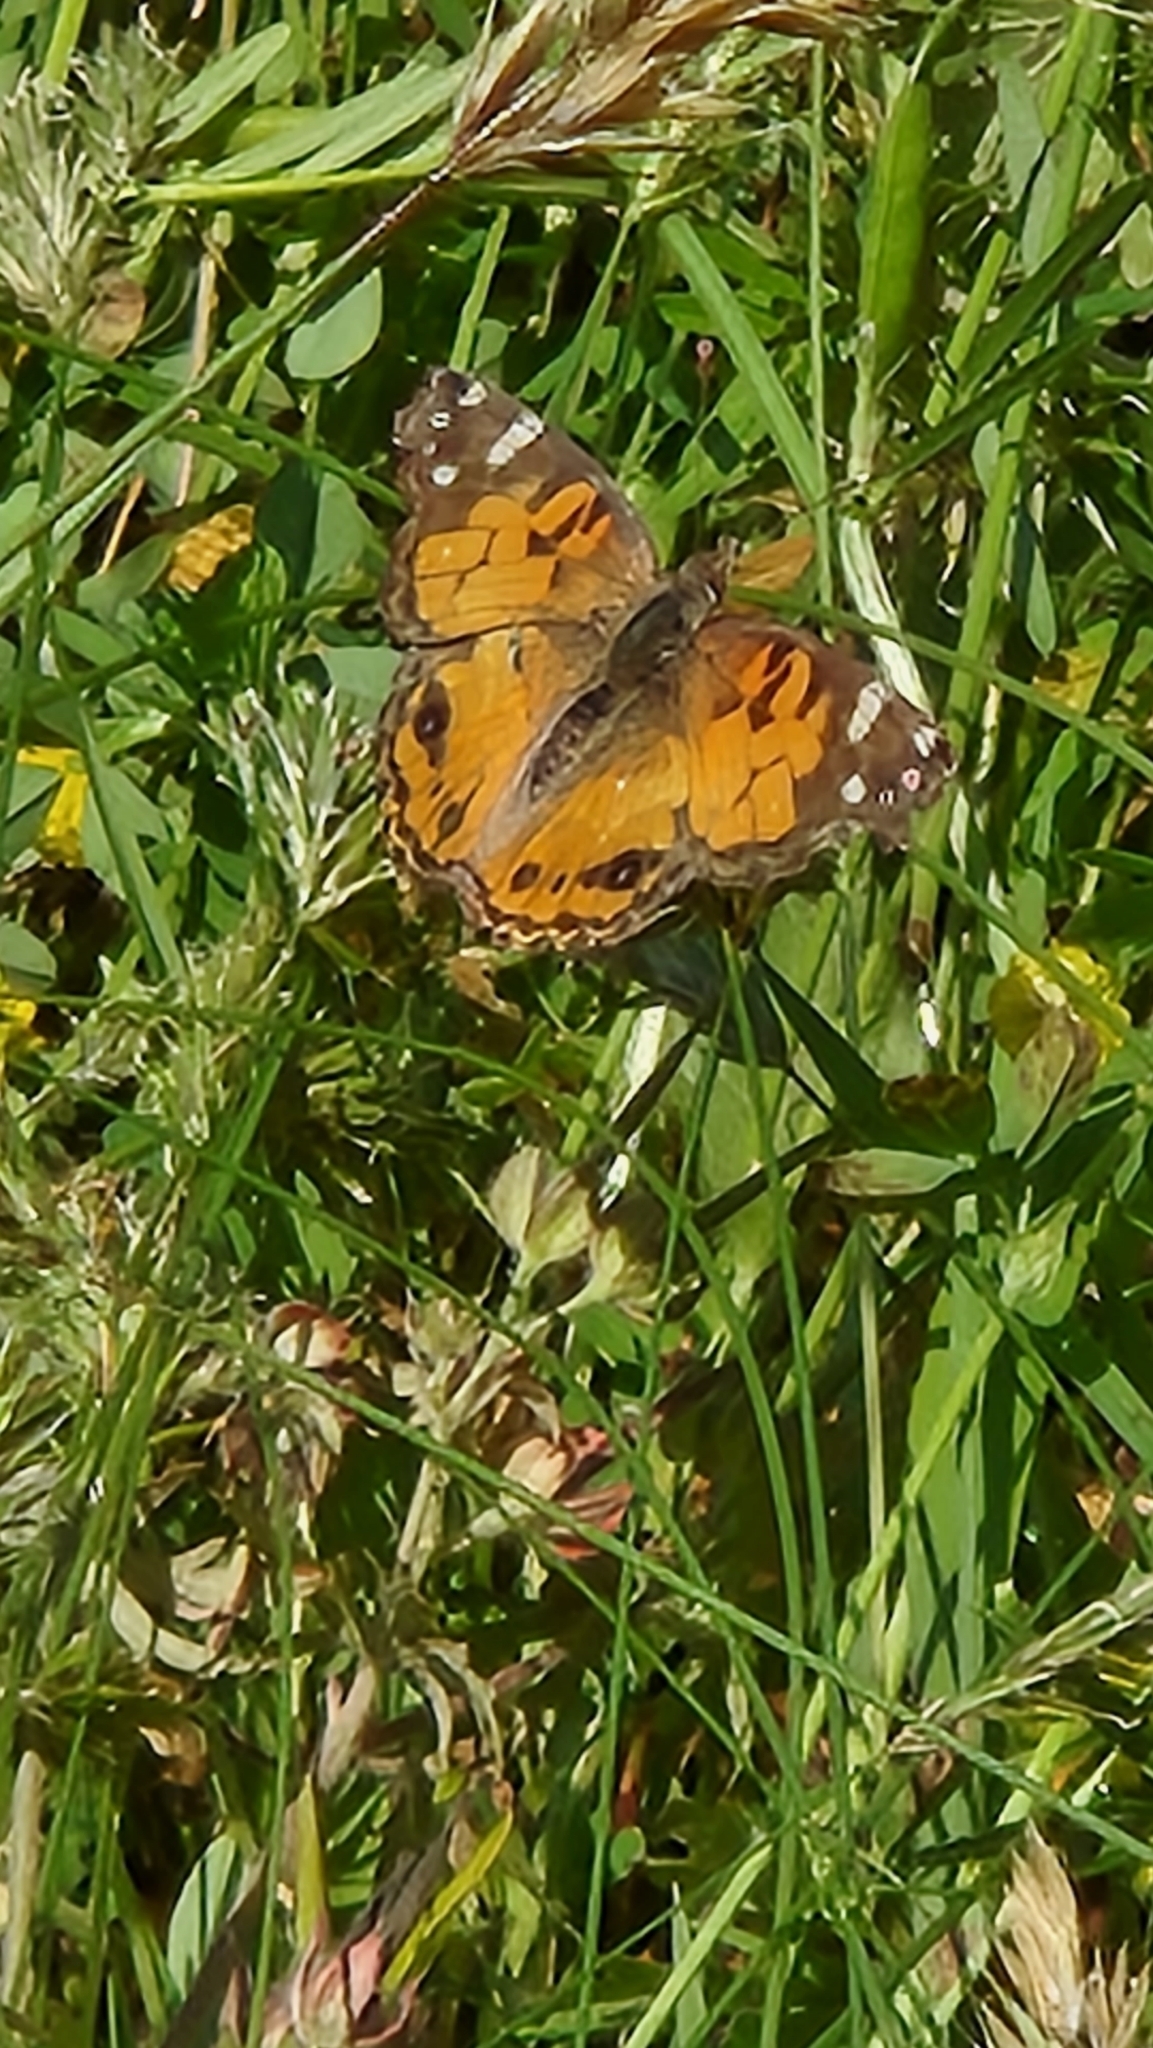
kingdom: Animalia
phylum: Arthropoda
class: Insecta
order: Lepidoptera
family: Nymphalidae
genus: Vanessa
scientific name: Vanessa virginiensis
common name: American lady
